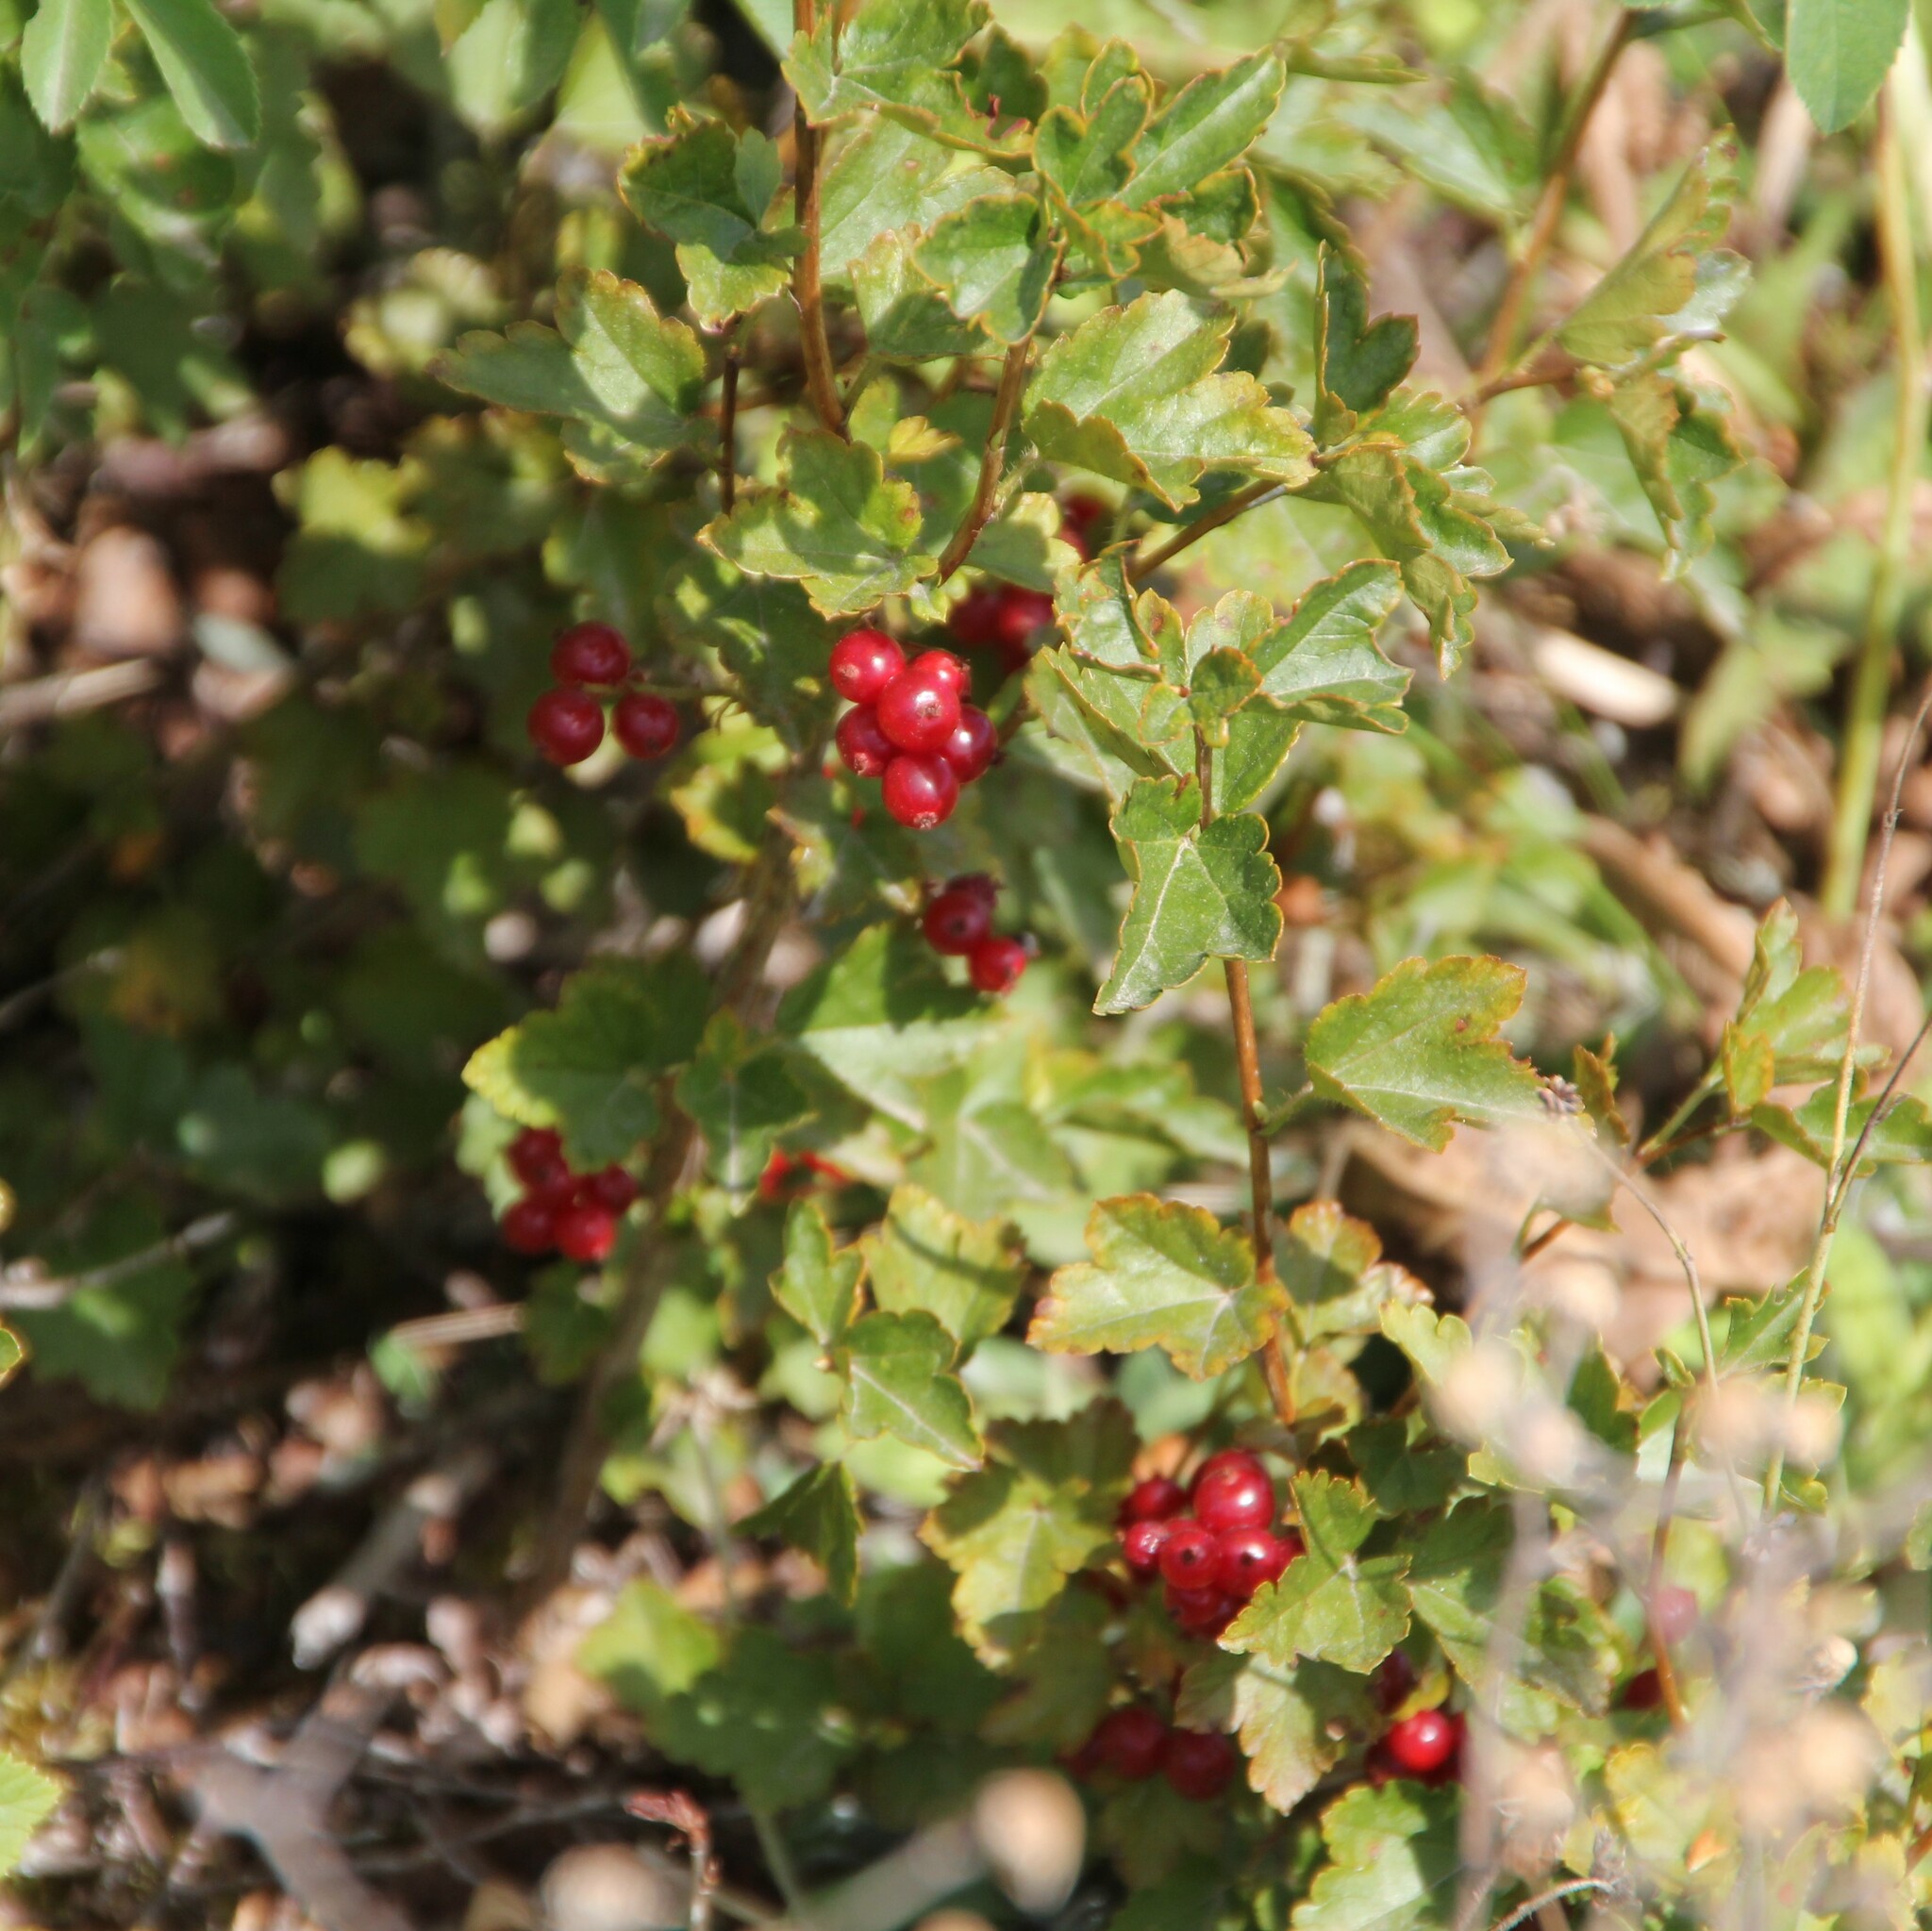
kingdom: Plantae
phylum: Tracheophyta
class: Magnoliopsida
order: Saxifragales
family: Grossulariaceae
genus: Ribes
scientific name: Ribes alpinum
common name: Alpine currant
